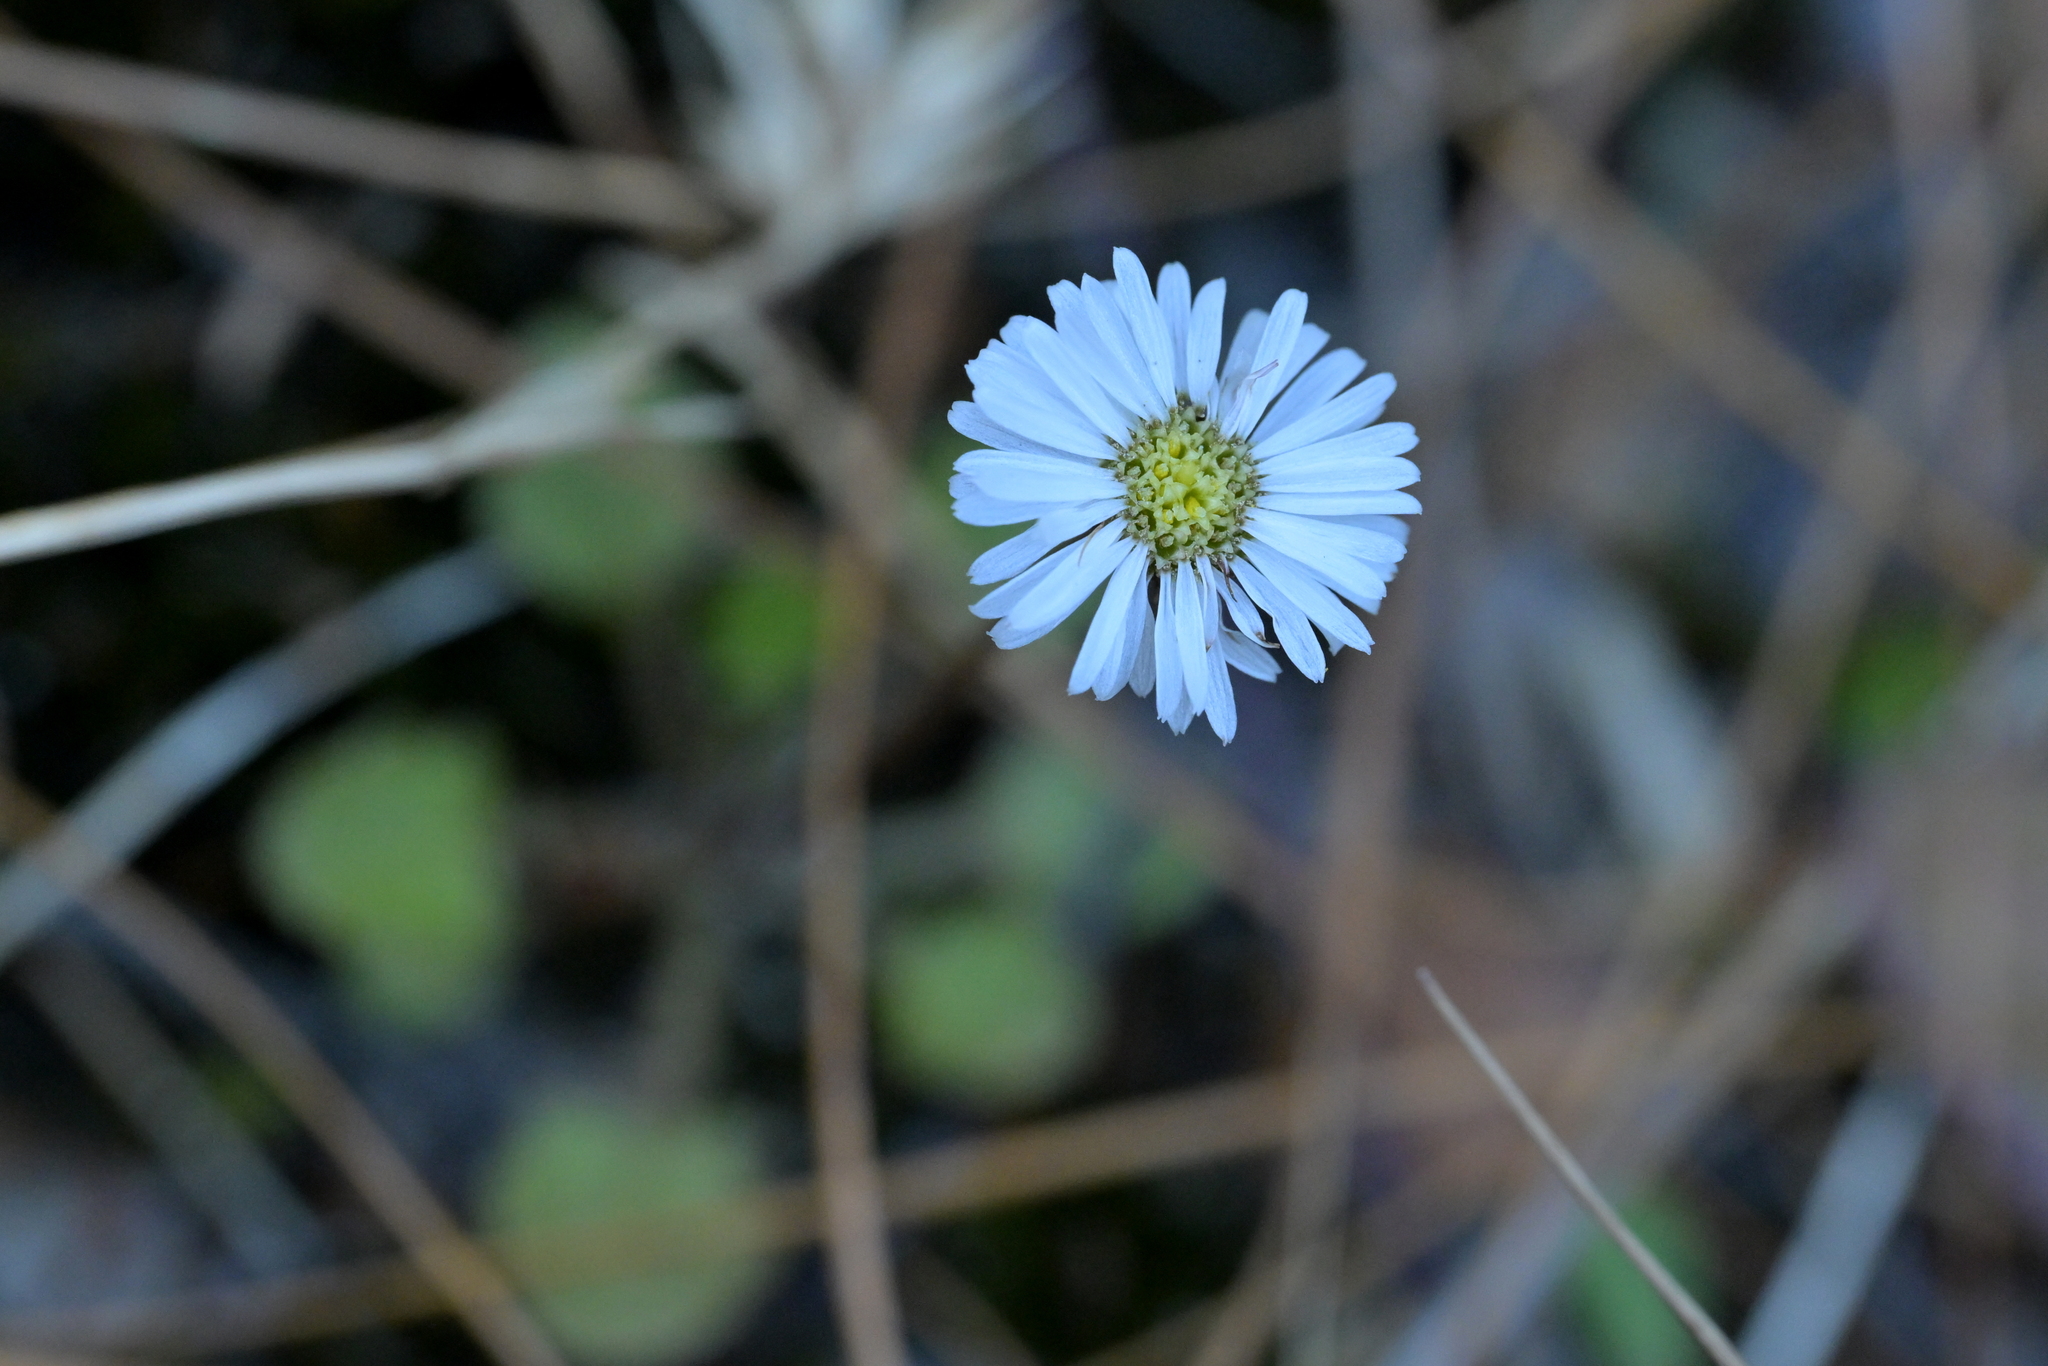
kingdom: Plantae
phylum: Tracheophyta
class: Magnoliopsida
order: Asterales
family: Asteraceae
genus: Lagenophora
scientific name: Lagenophora pumila
